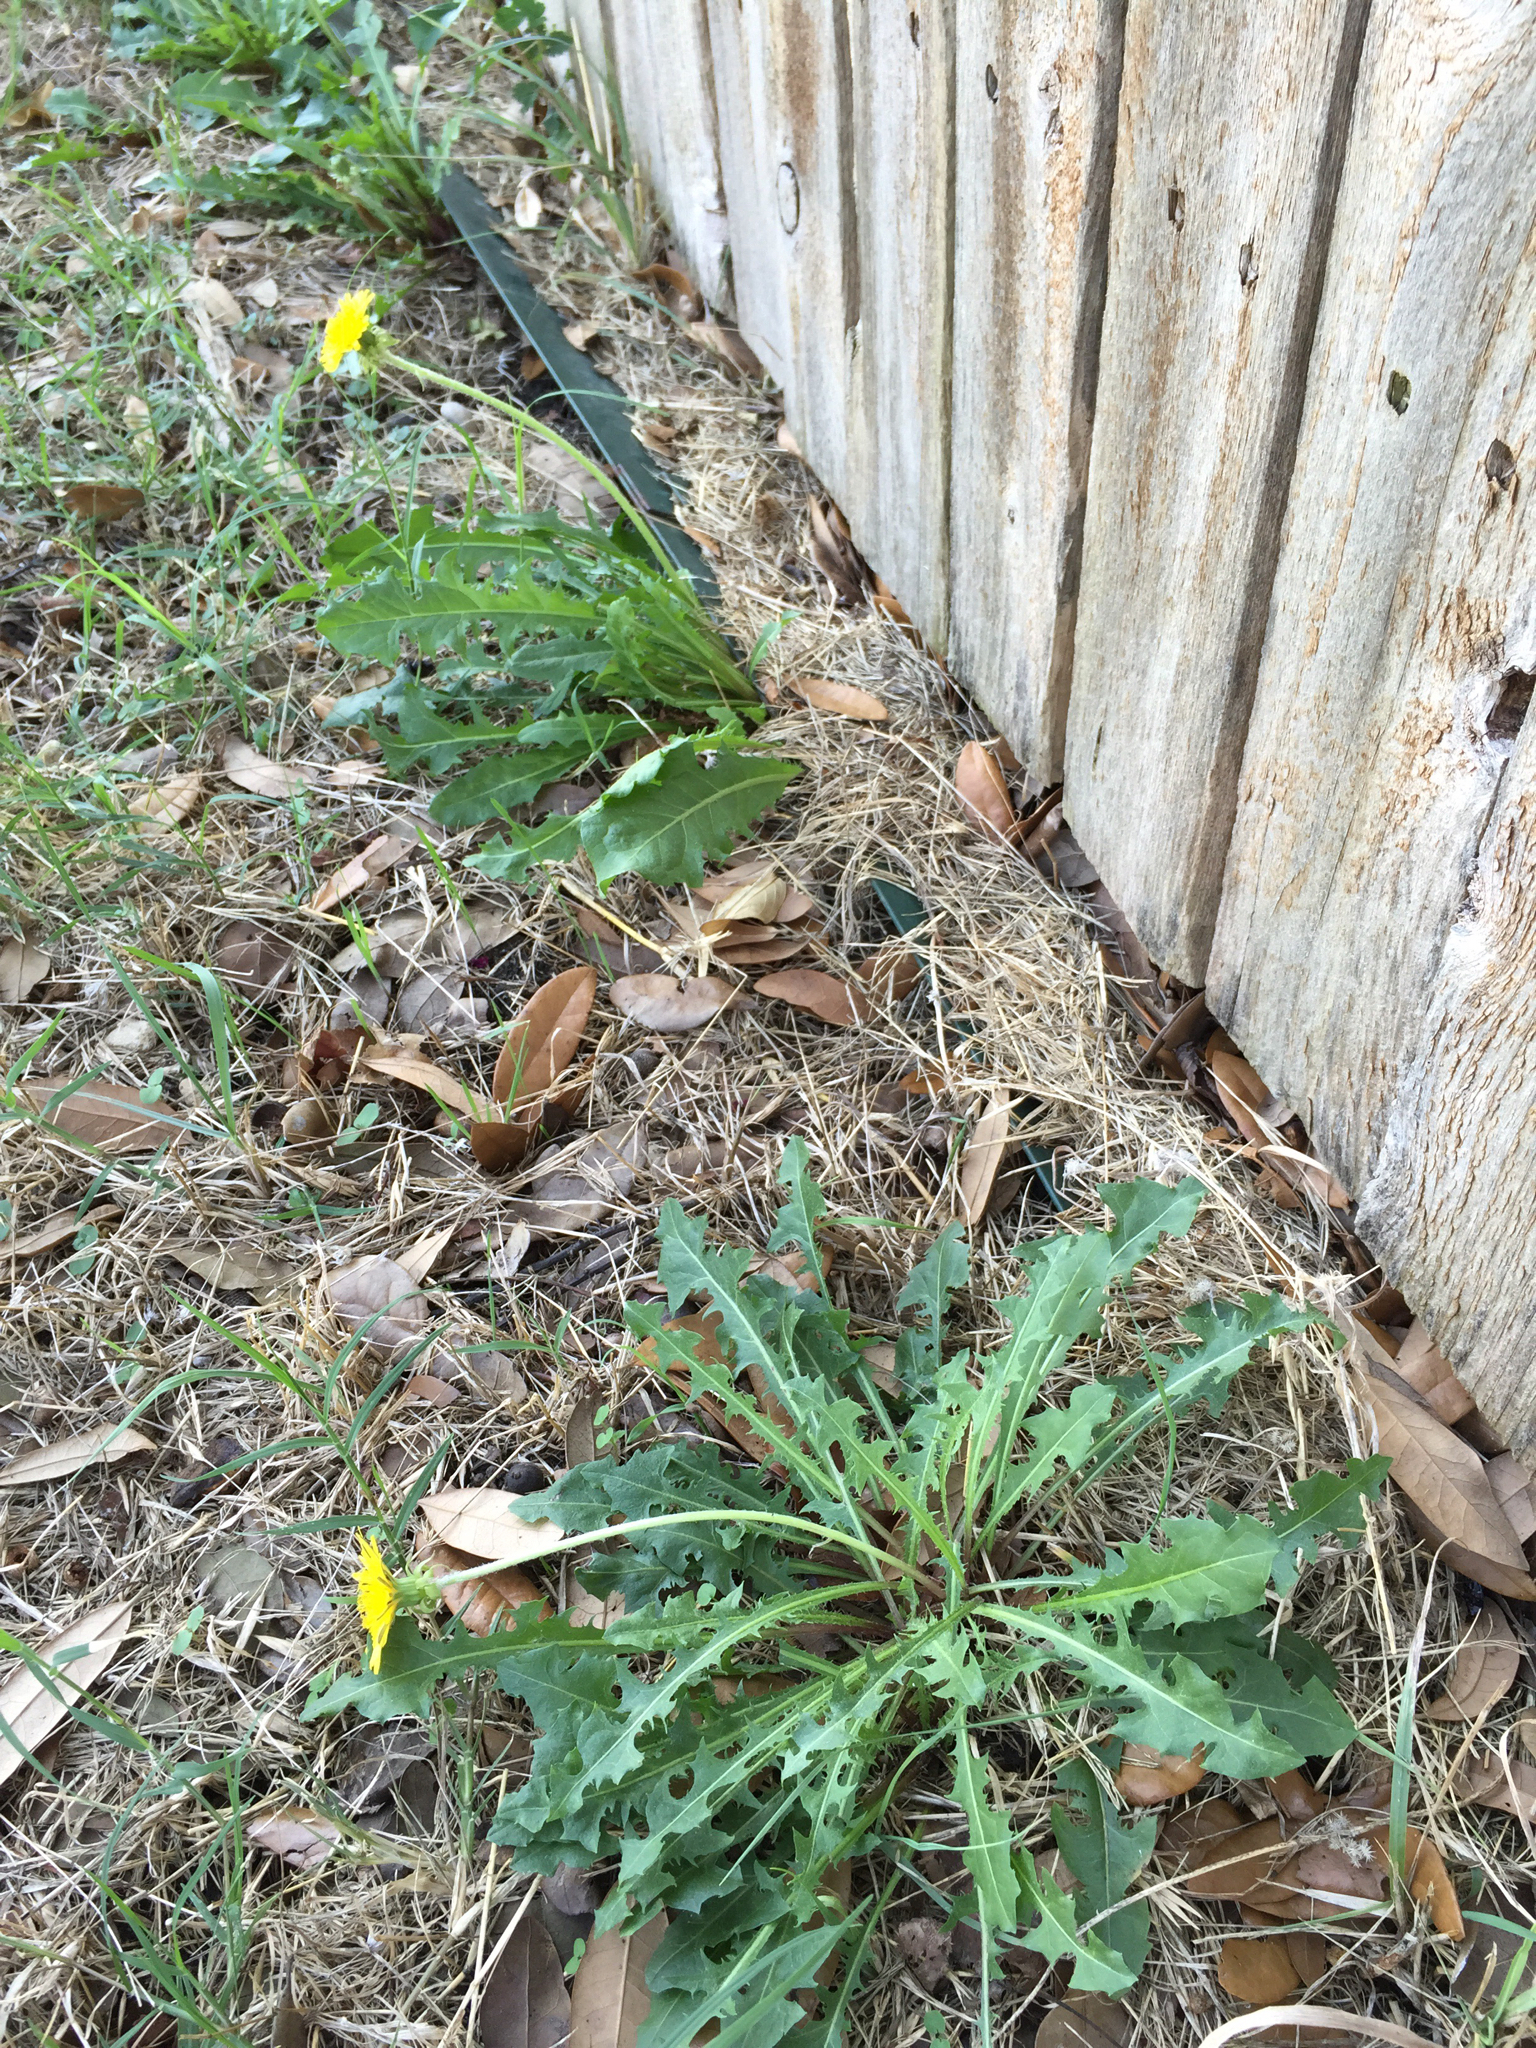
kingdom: Plantae
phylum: Tracheophyta
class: Magnoliopsida
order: Asterales
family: Asteraceae
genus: Taraxacum
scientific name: Taraxacum officinale
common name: Common dandelion
